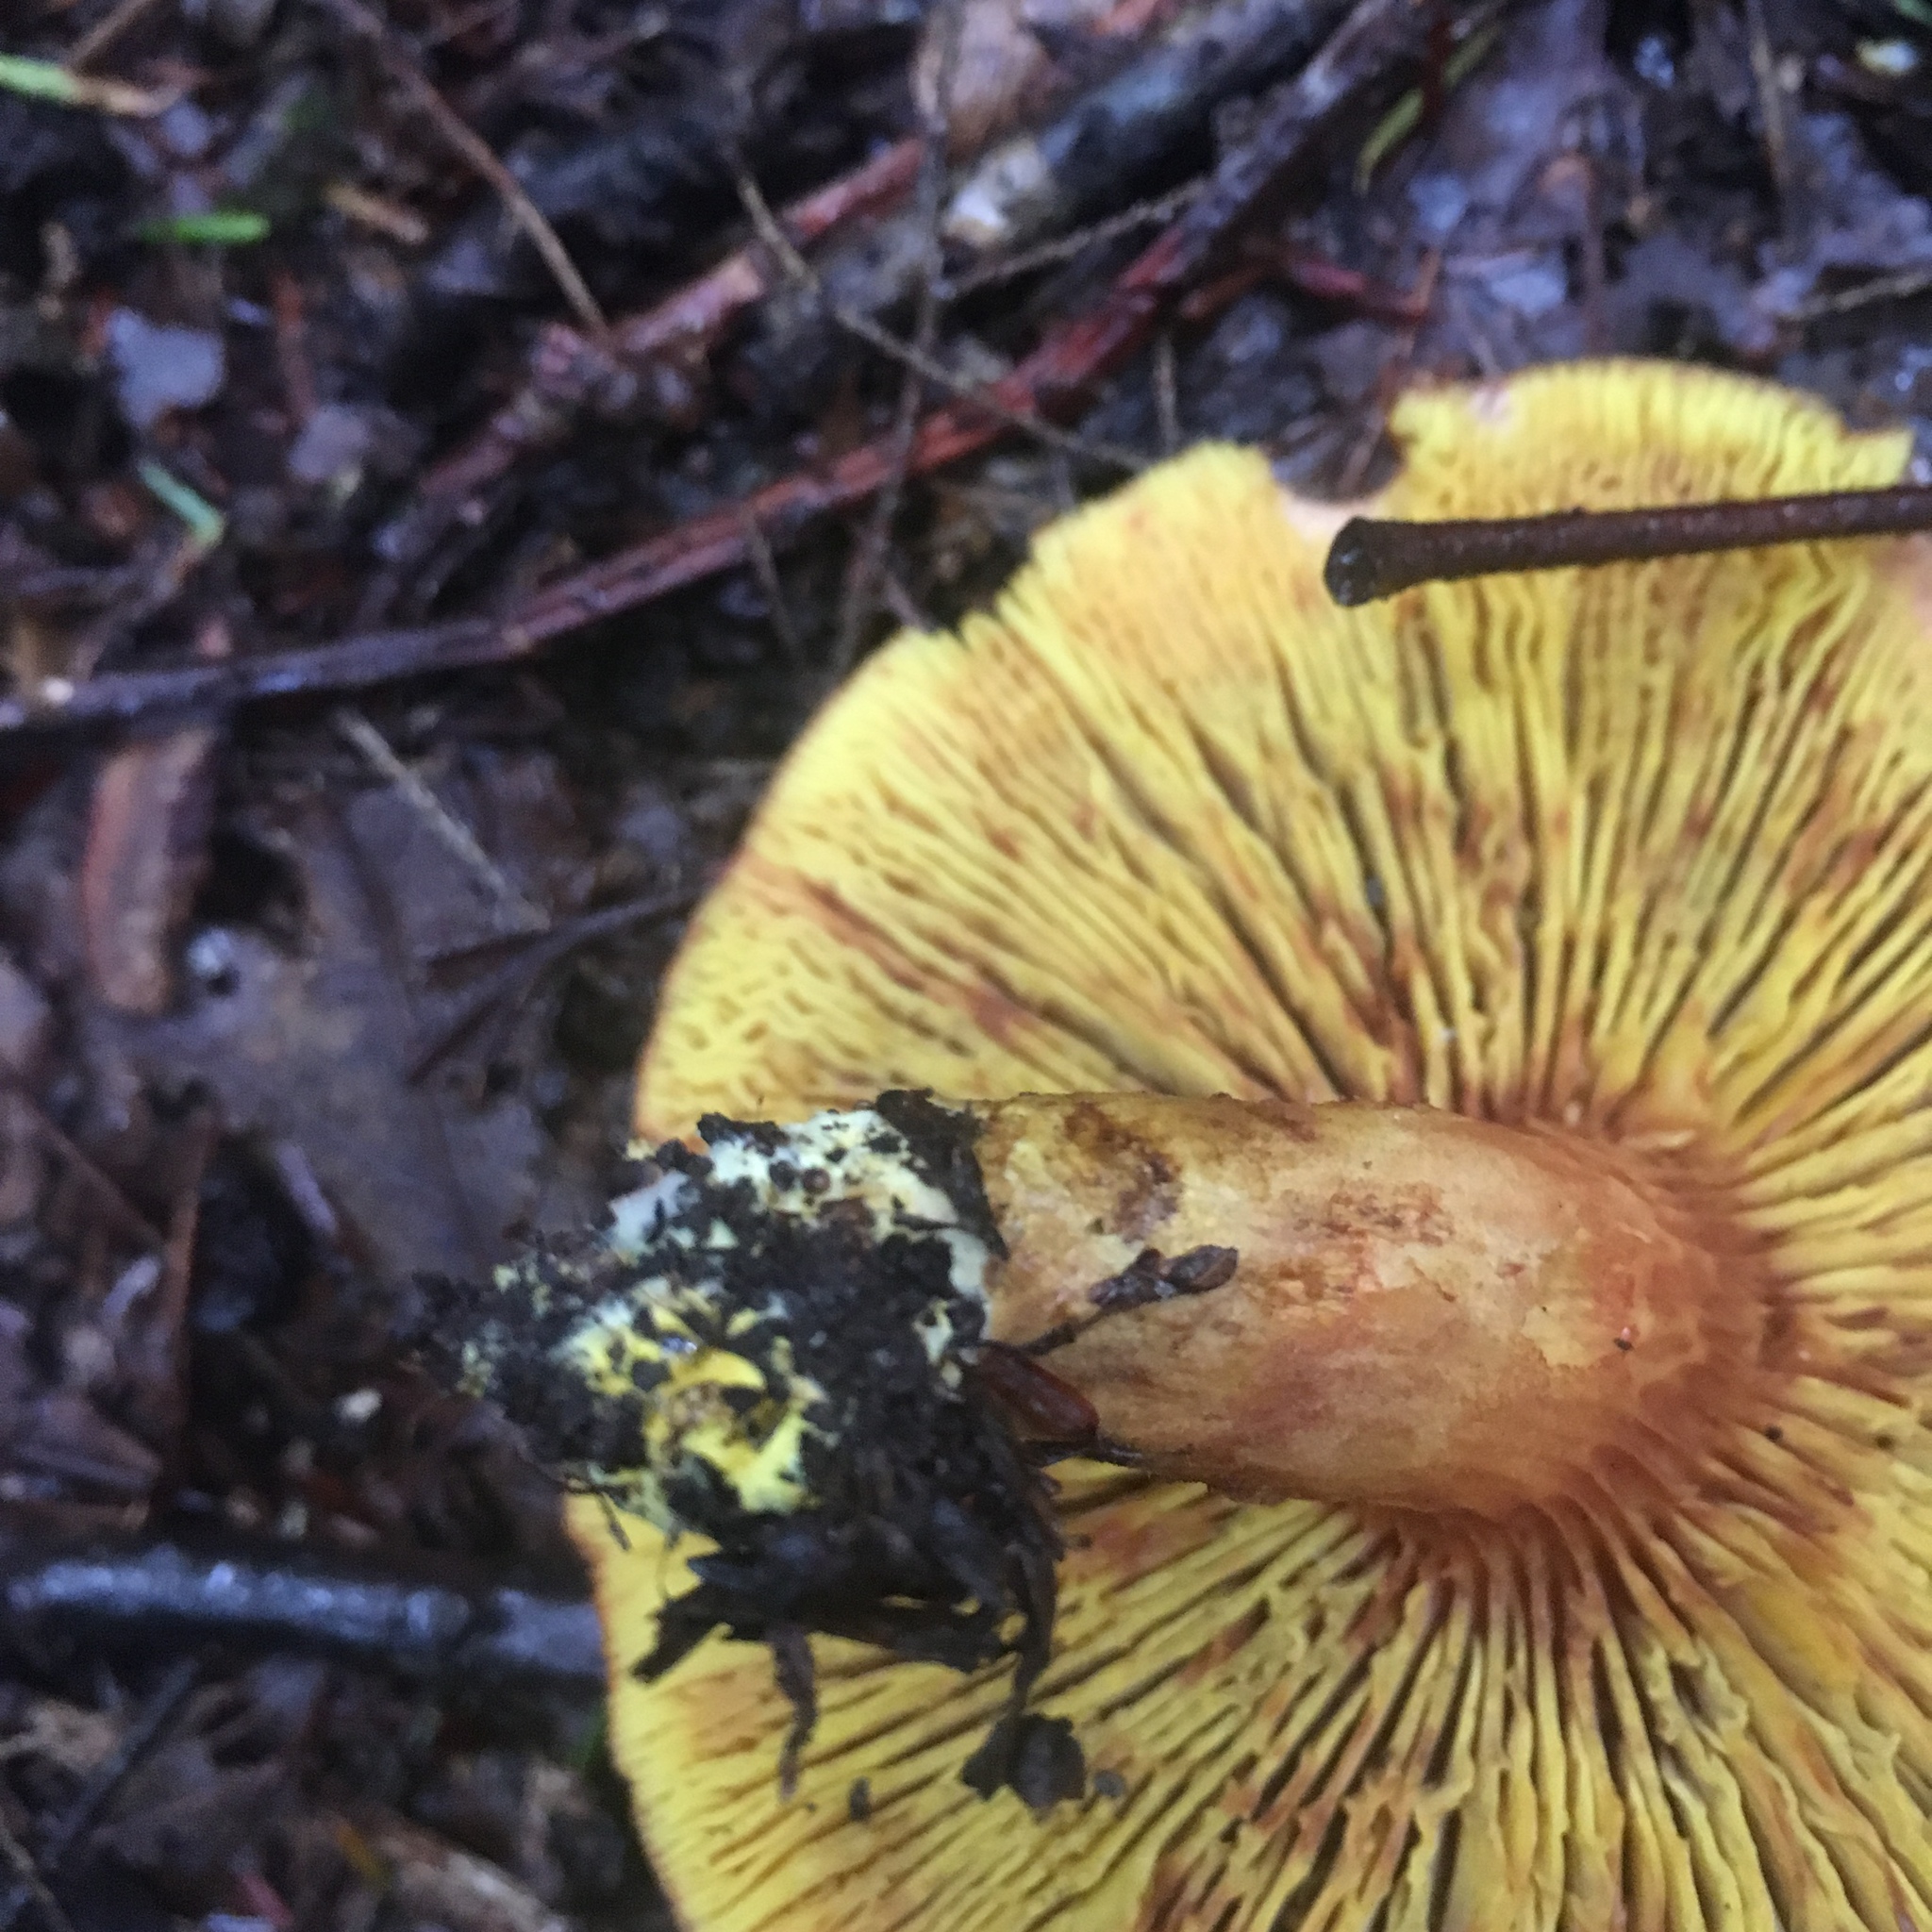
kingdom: Fungi
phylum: Basidiomycota
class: Agaricomycetes
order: Boletales
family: Boletaceae
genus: Phylloporus
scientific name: Phylloporus rhodoxanthus
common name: Golden gilled bolete
